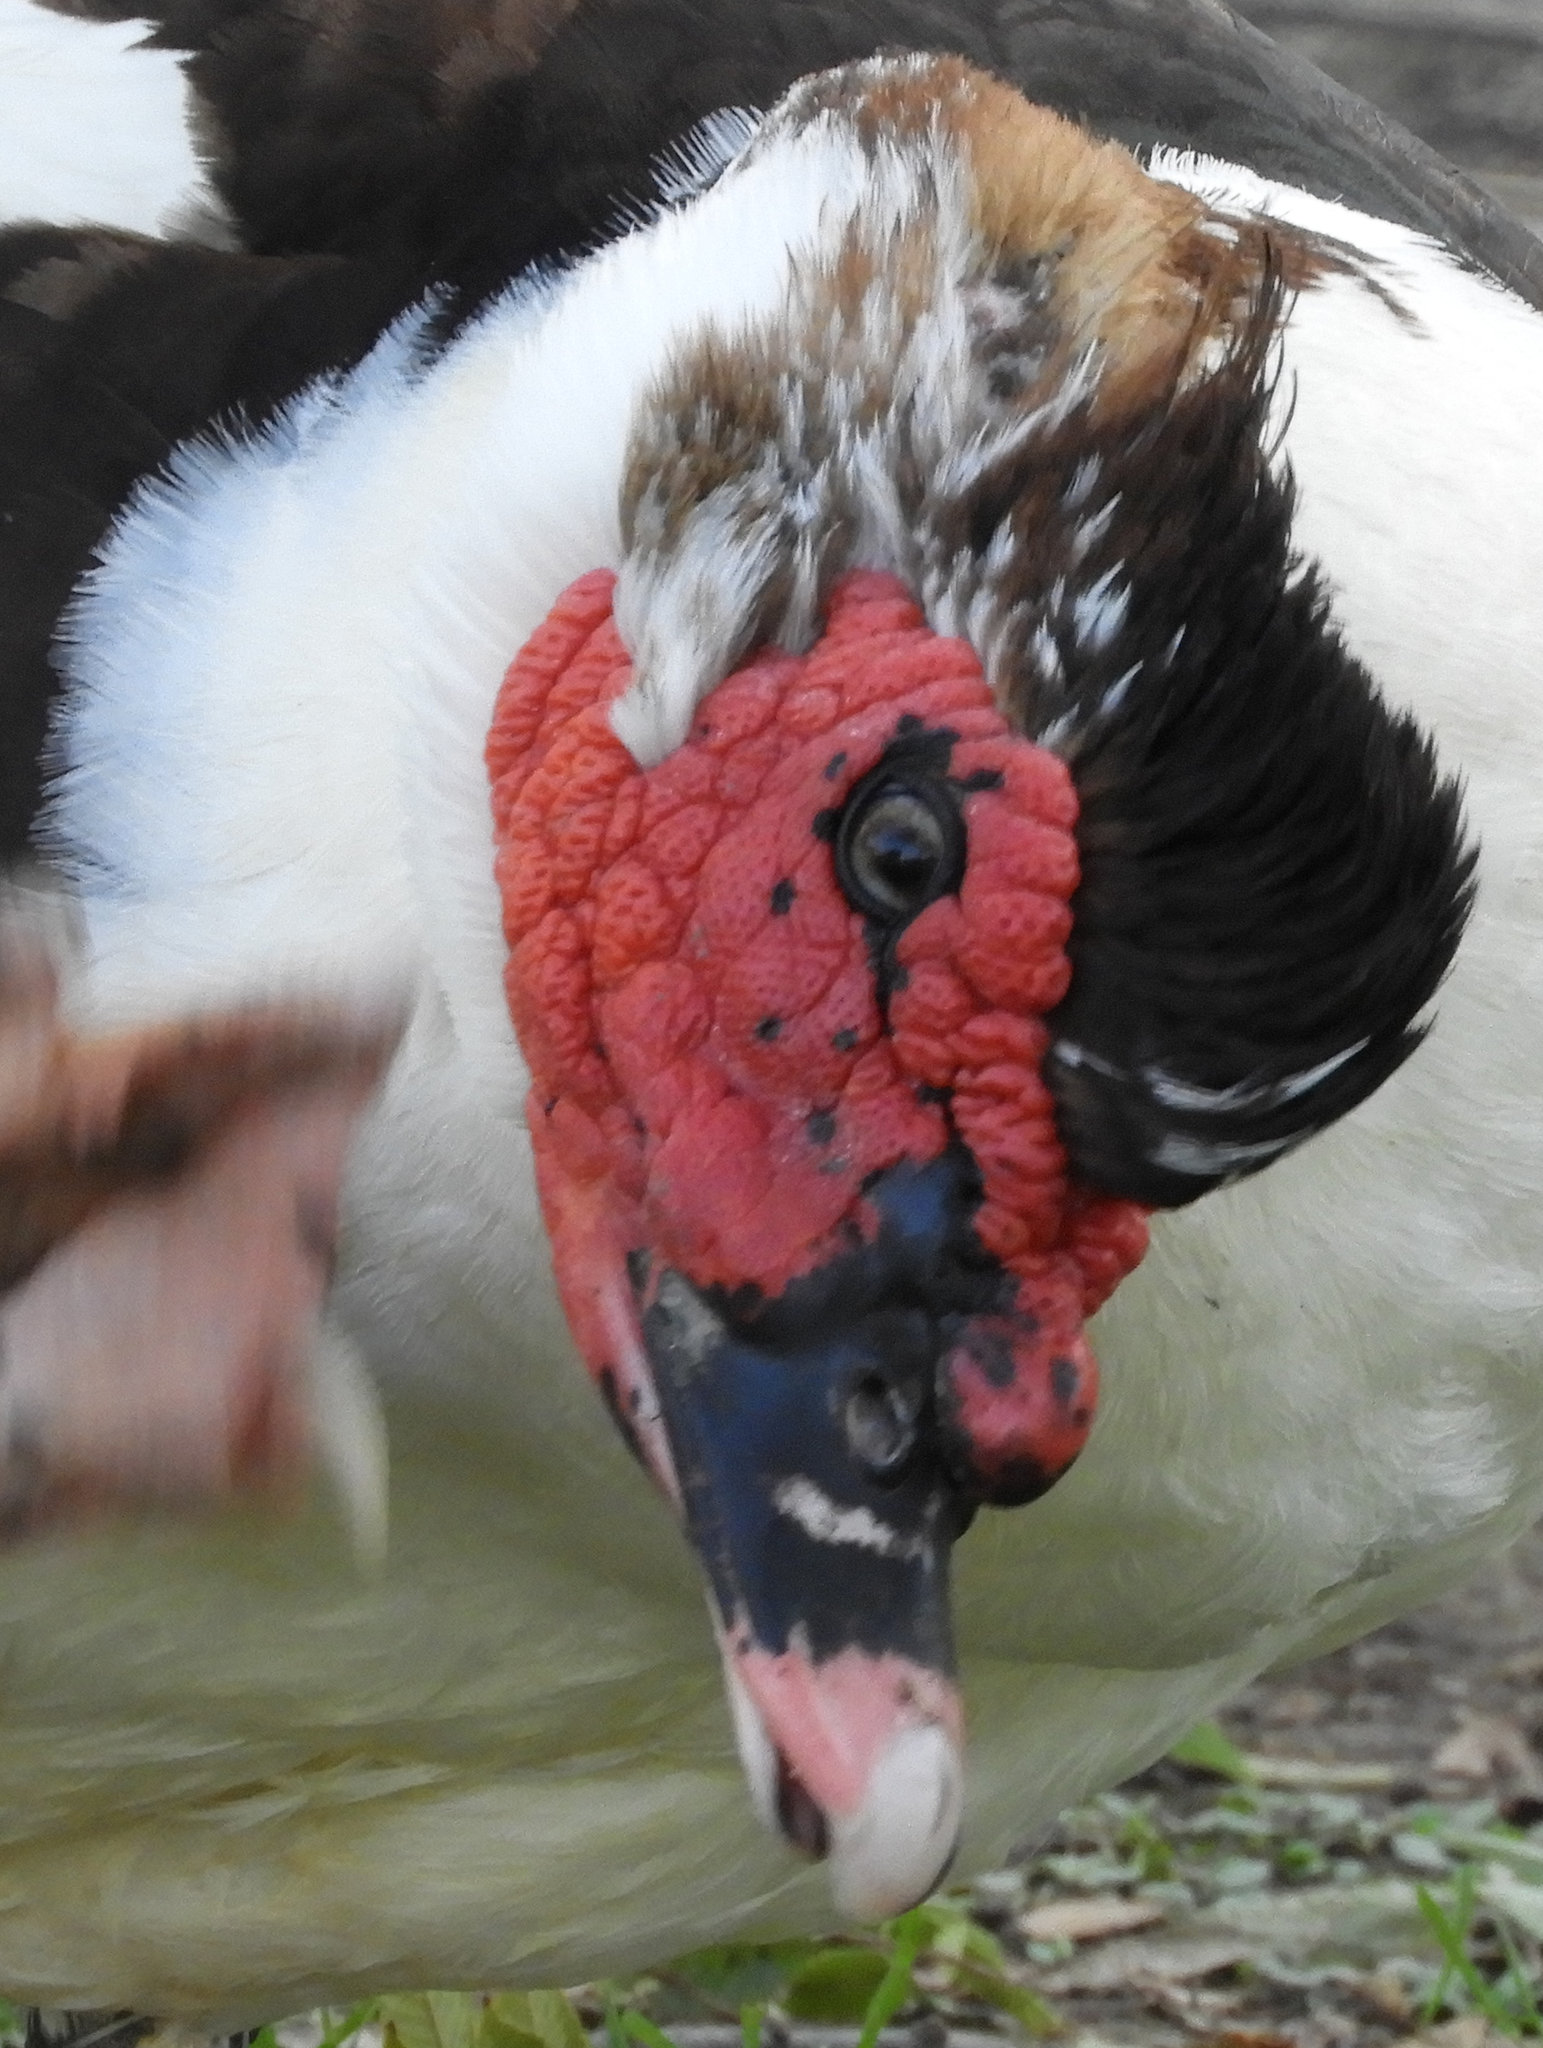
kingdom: Animalia
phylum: Chordata
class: Aves
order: Anseriformes
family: Anatidae
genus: Cairina
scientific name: Cairina moschata
